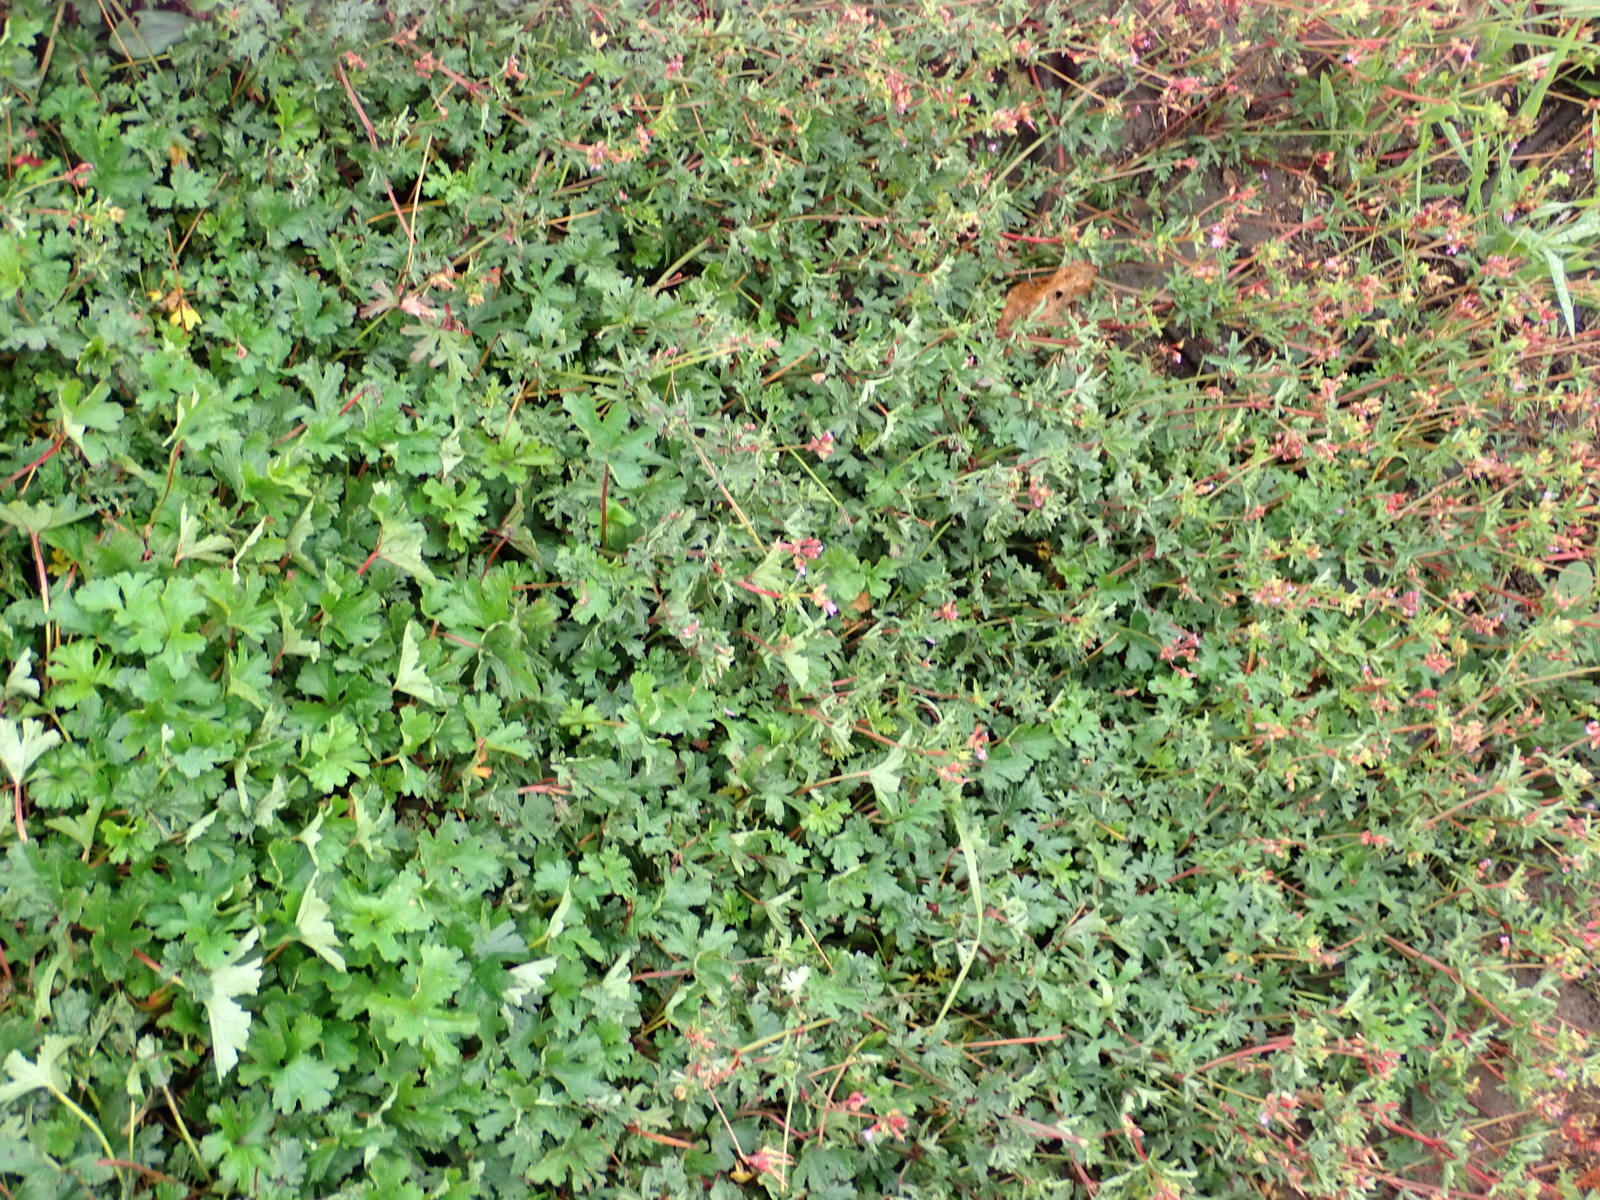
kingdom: Plantae
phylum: Tracheophyta
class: Magnoliopsida
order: Geraniales
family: Geraniaceae
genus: Pelargonium
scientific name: Pelargonium columbinum
